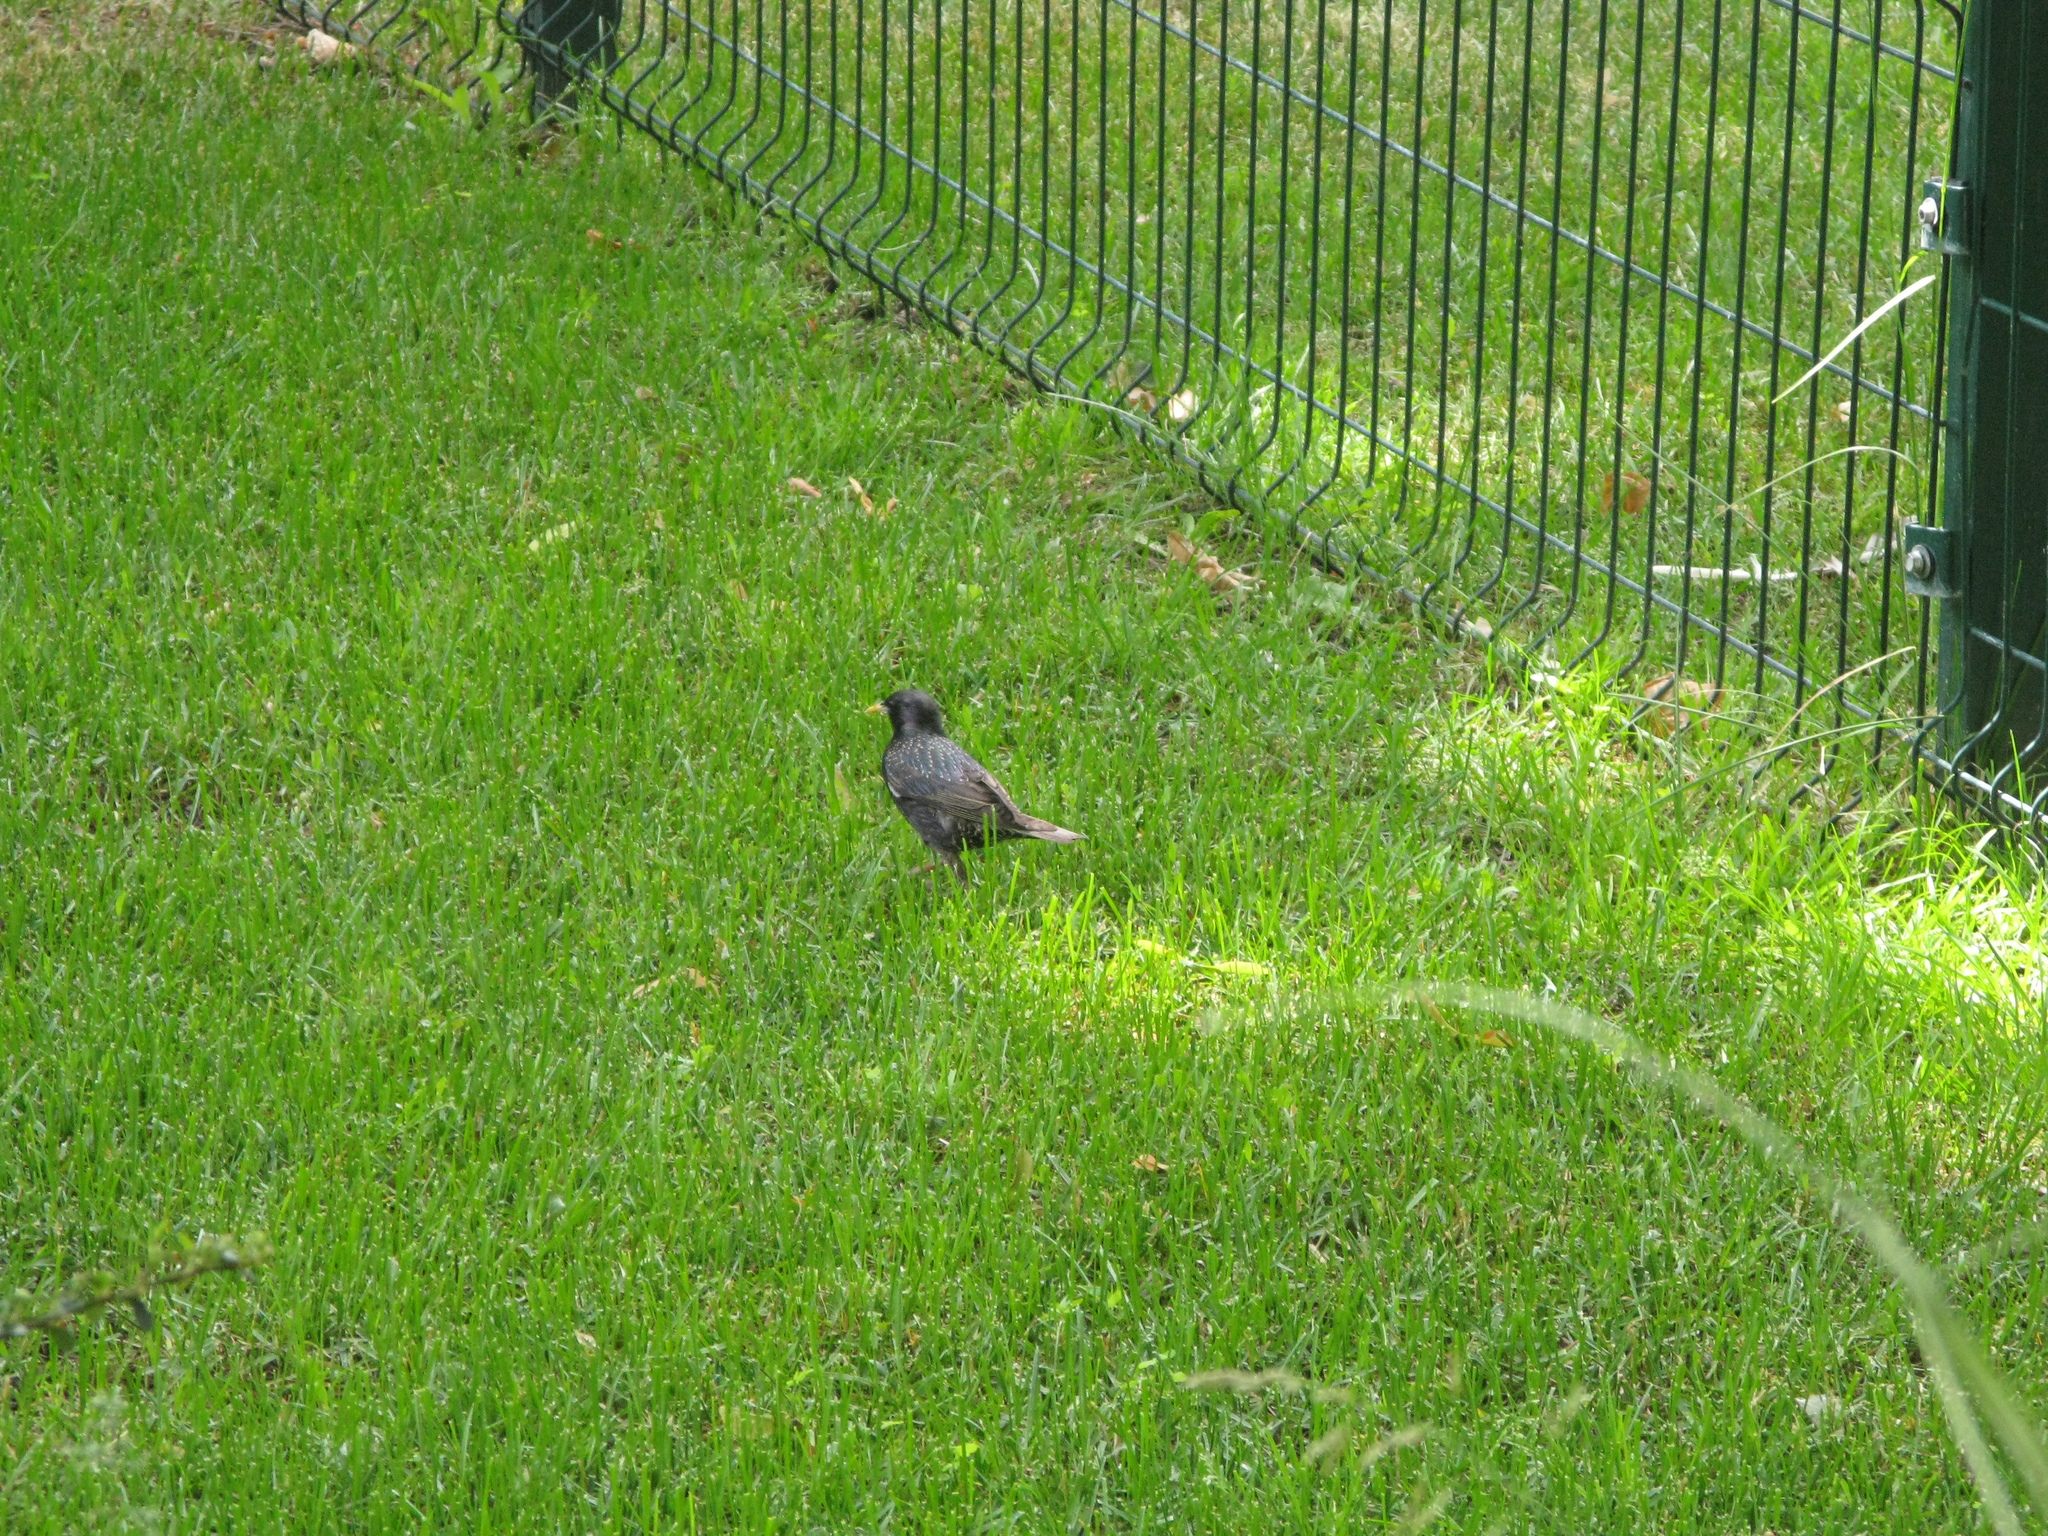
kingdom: Animalia
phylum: Chordata
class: Aves
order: Passeriformes
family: Sturnidae
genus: Sturnus
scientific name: Sturnus vulgaris
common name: Common starling
